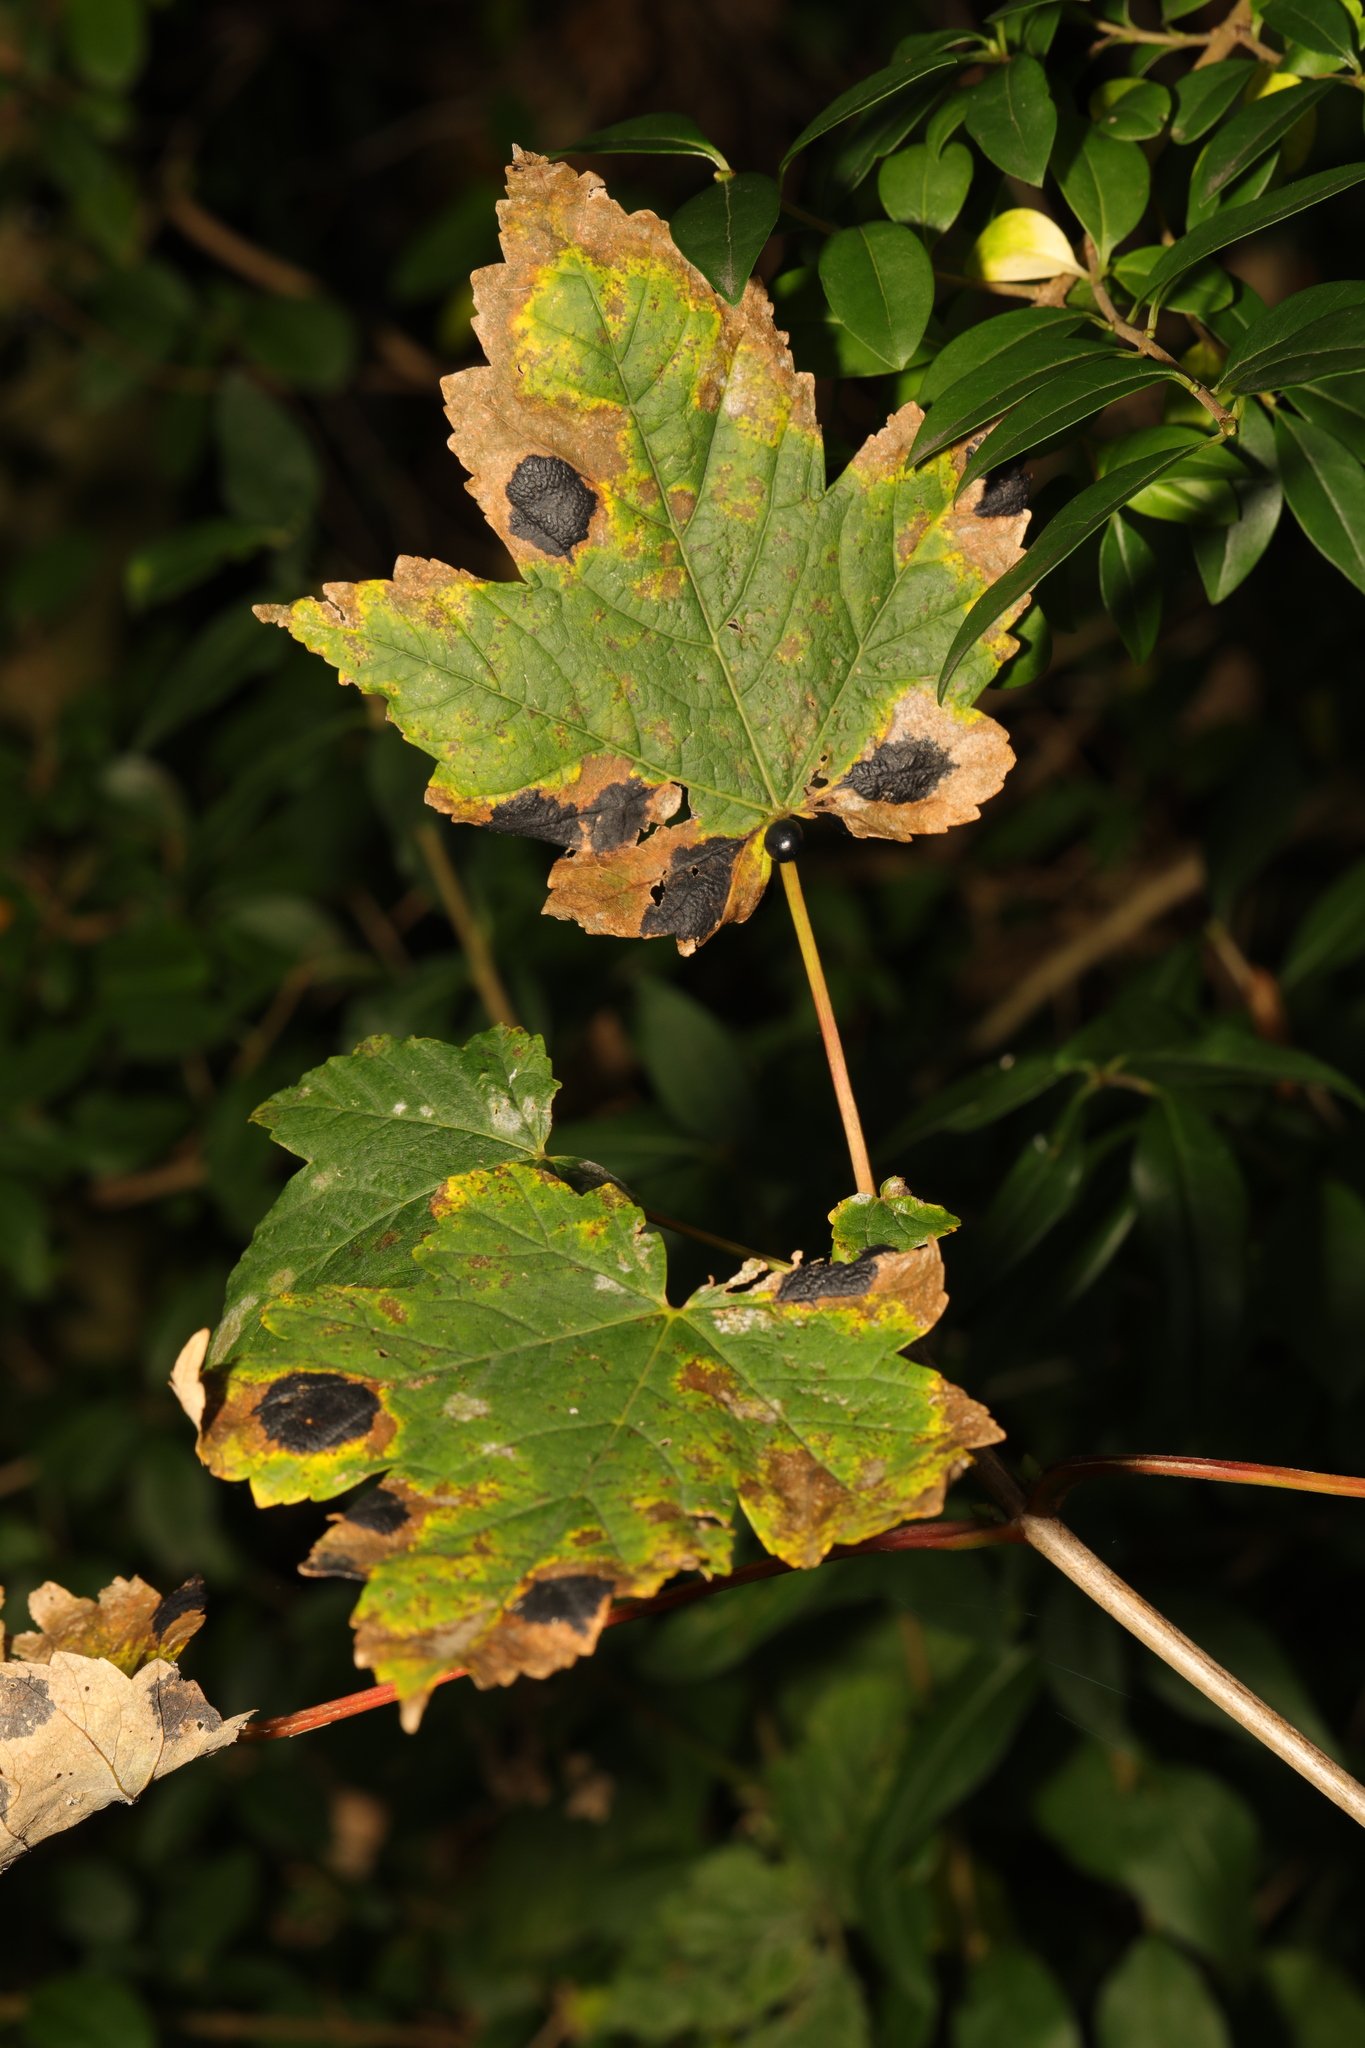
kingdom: Plantae
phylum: Tracheophyta
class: Magnoliopsida
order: Sapindales
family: Sapindaceae
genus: Acer
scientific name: Acer pseudoplatanus
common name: Sycamore
